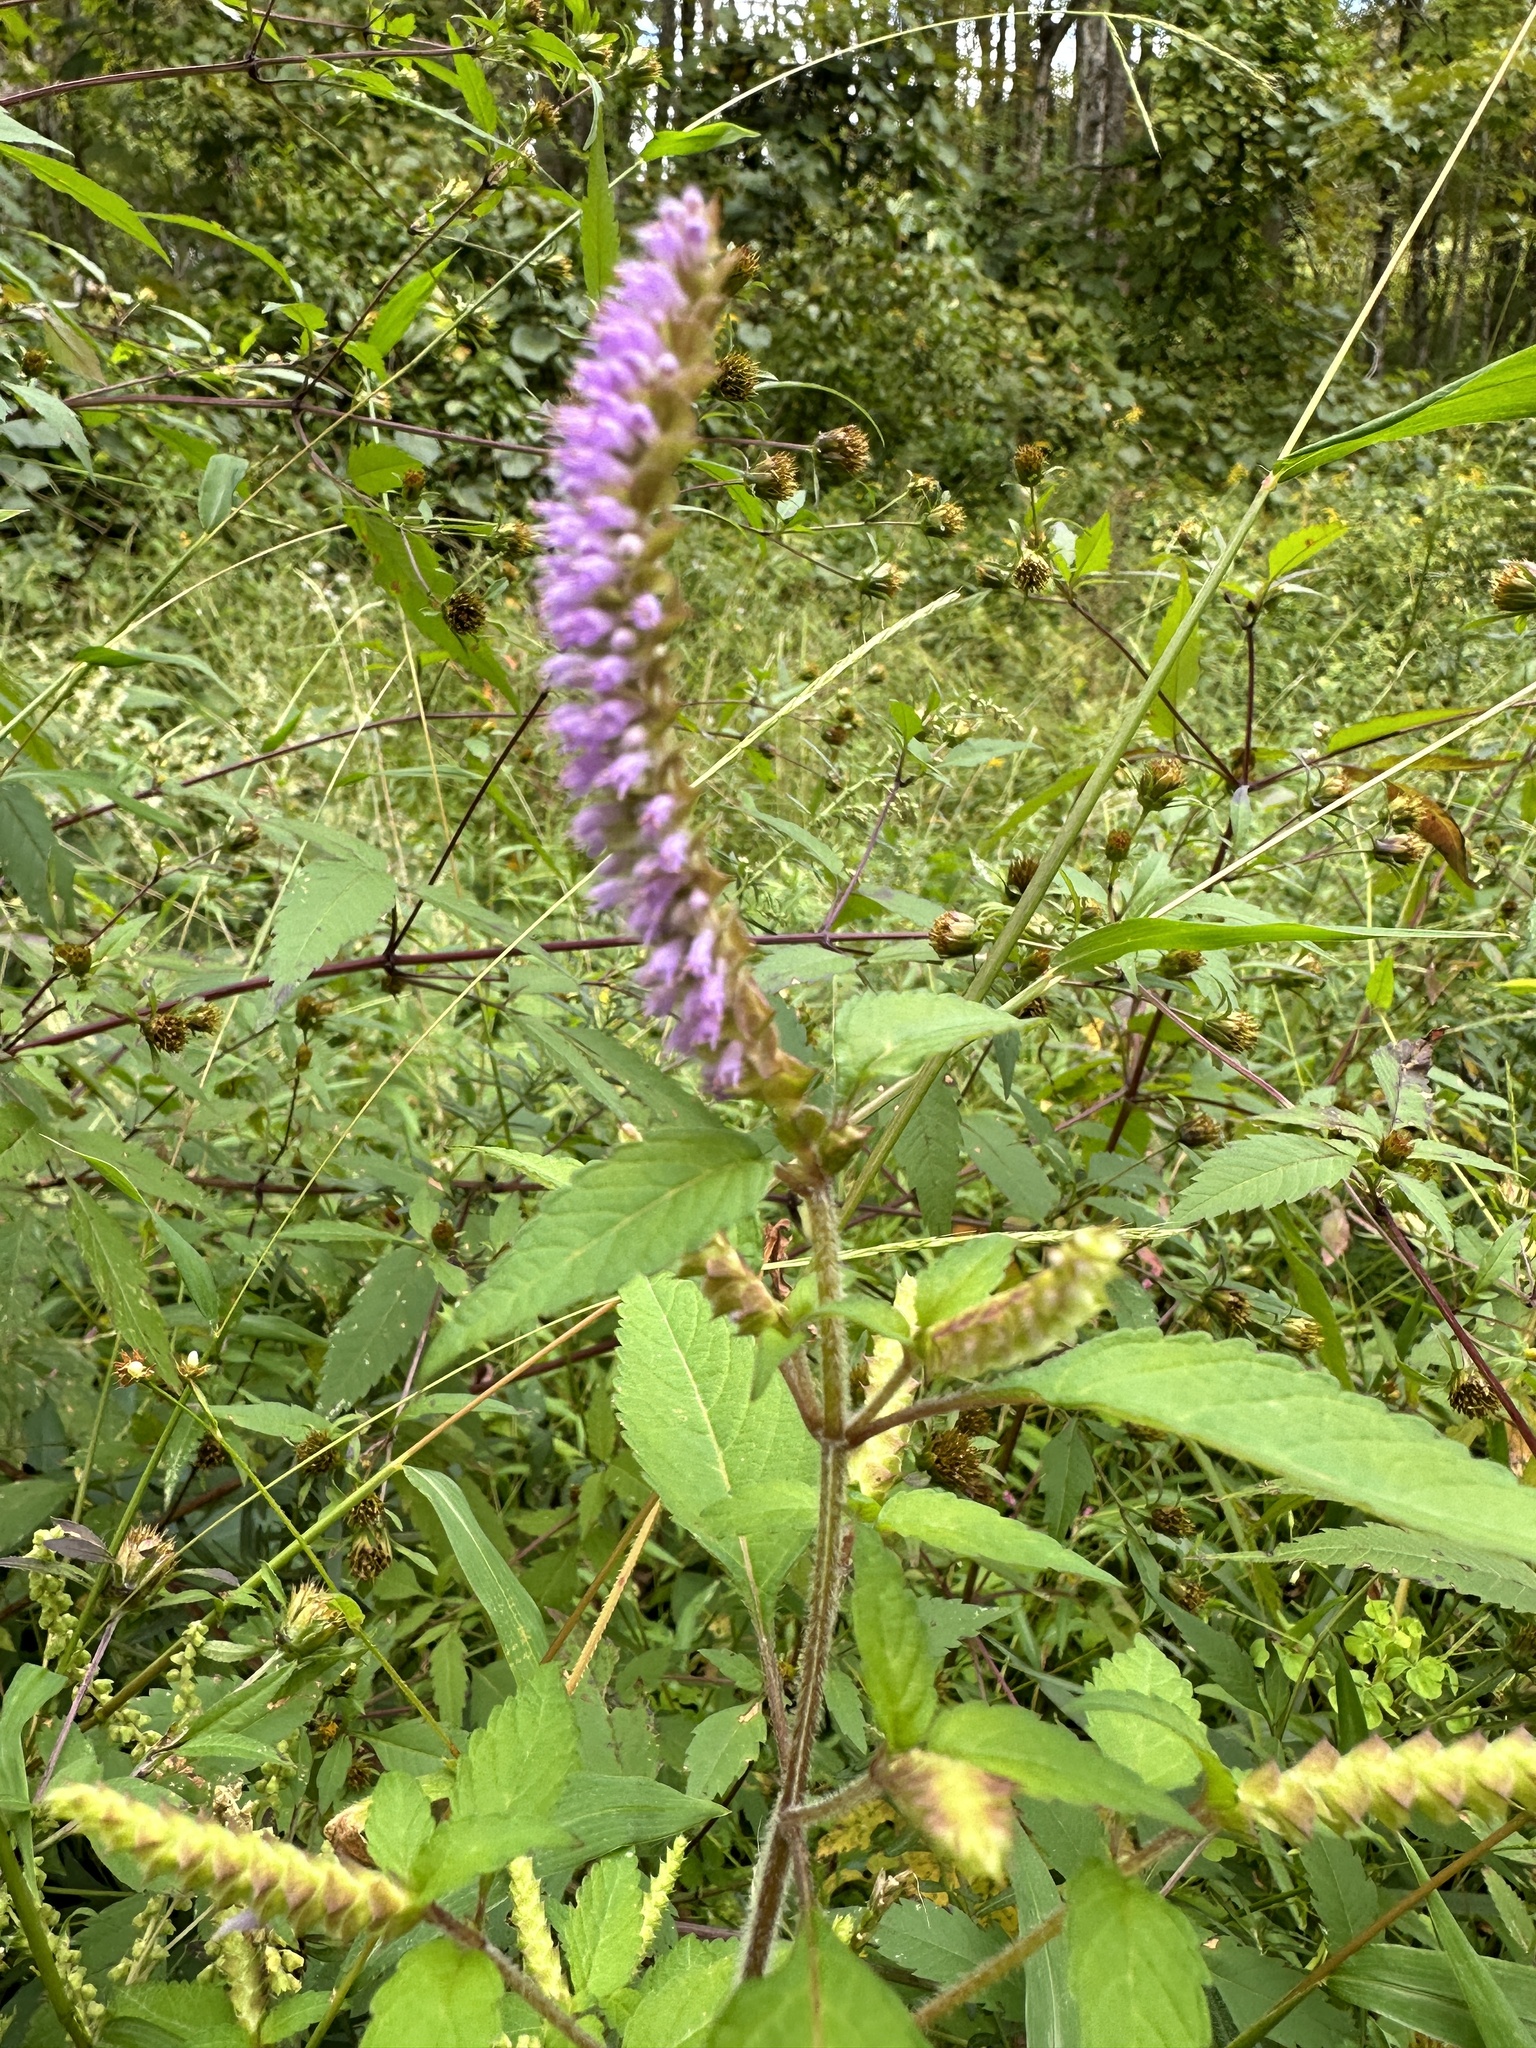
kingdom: Plantae
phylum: Tracheophyta
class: Magnoliopsida
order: Lamiales
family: Lamiaceae
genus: Elsholtzia
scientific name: Elsholtzia ciliata
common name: Ciliate elsholtzia
